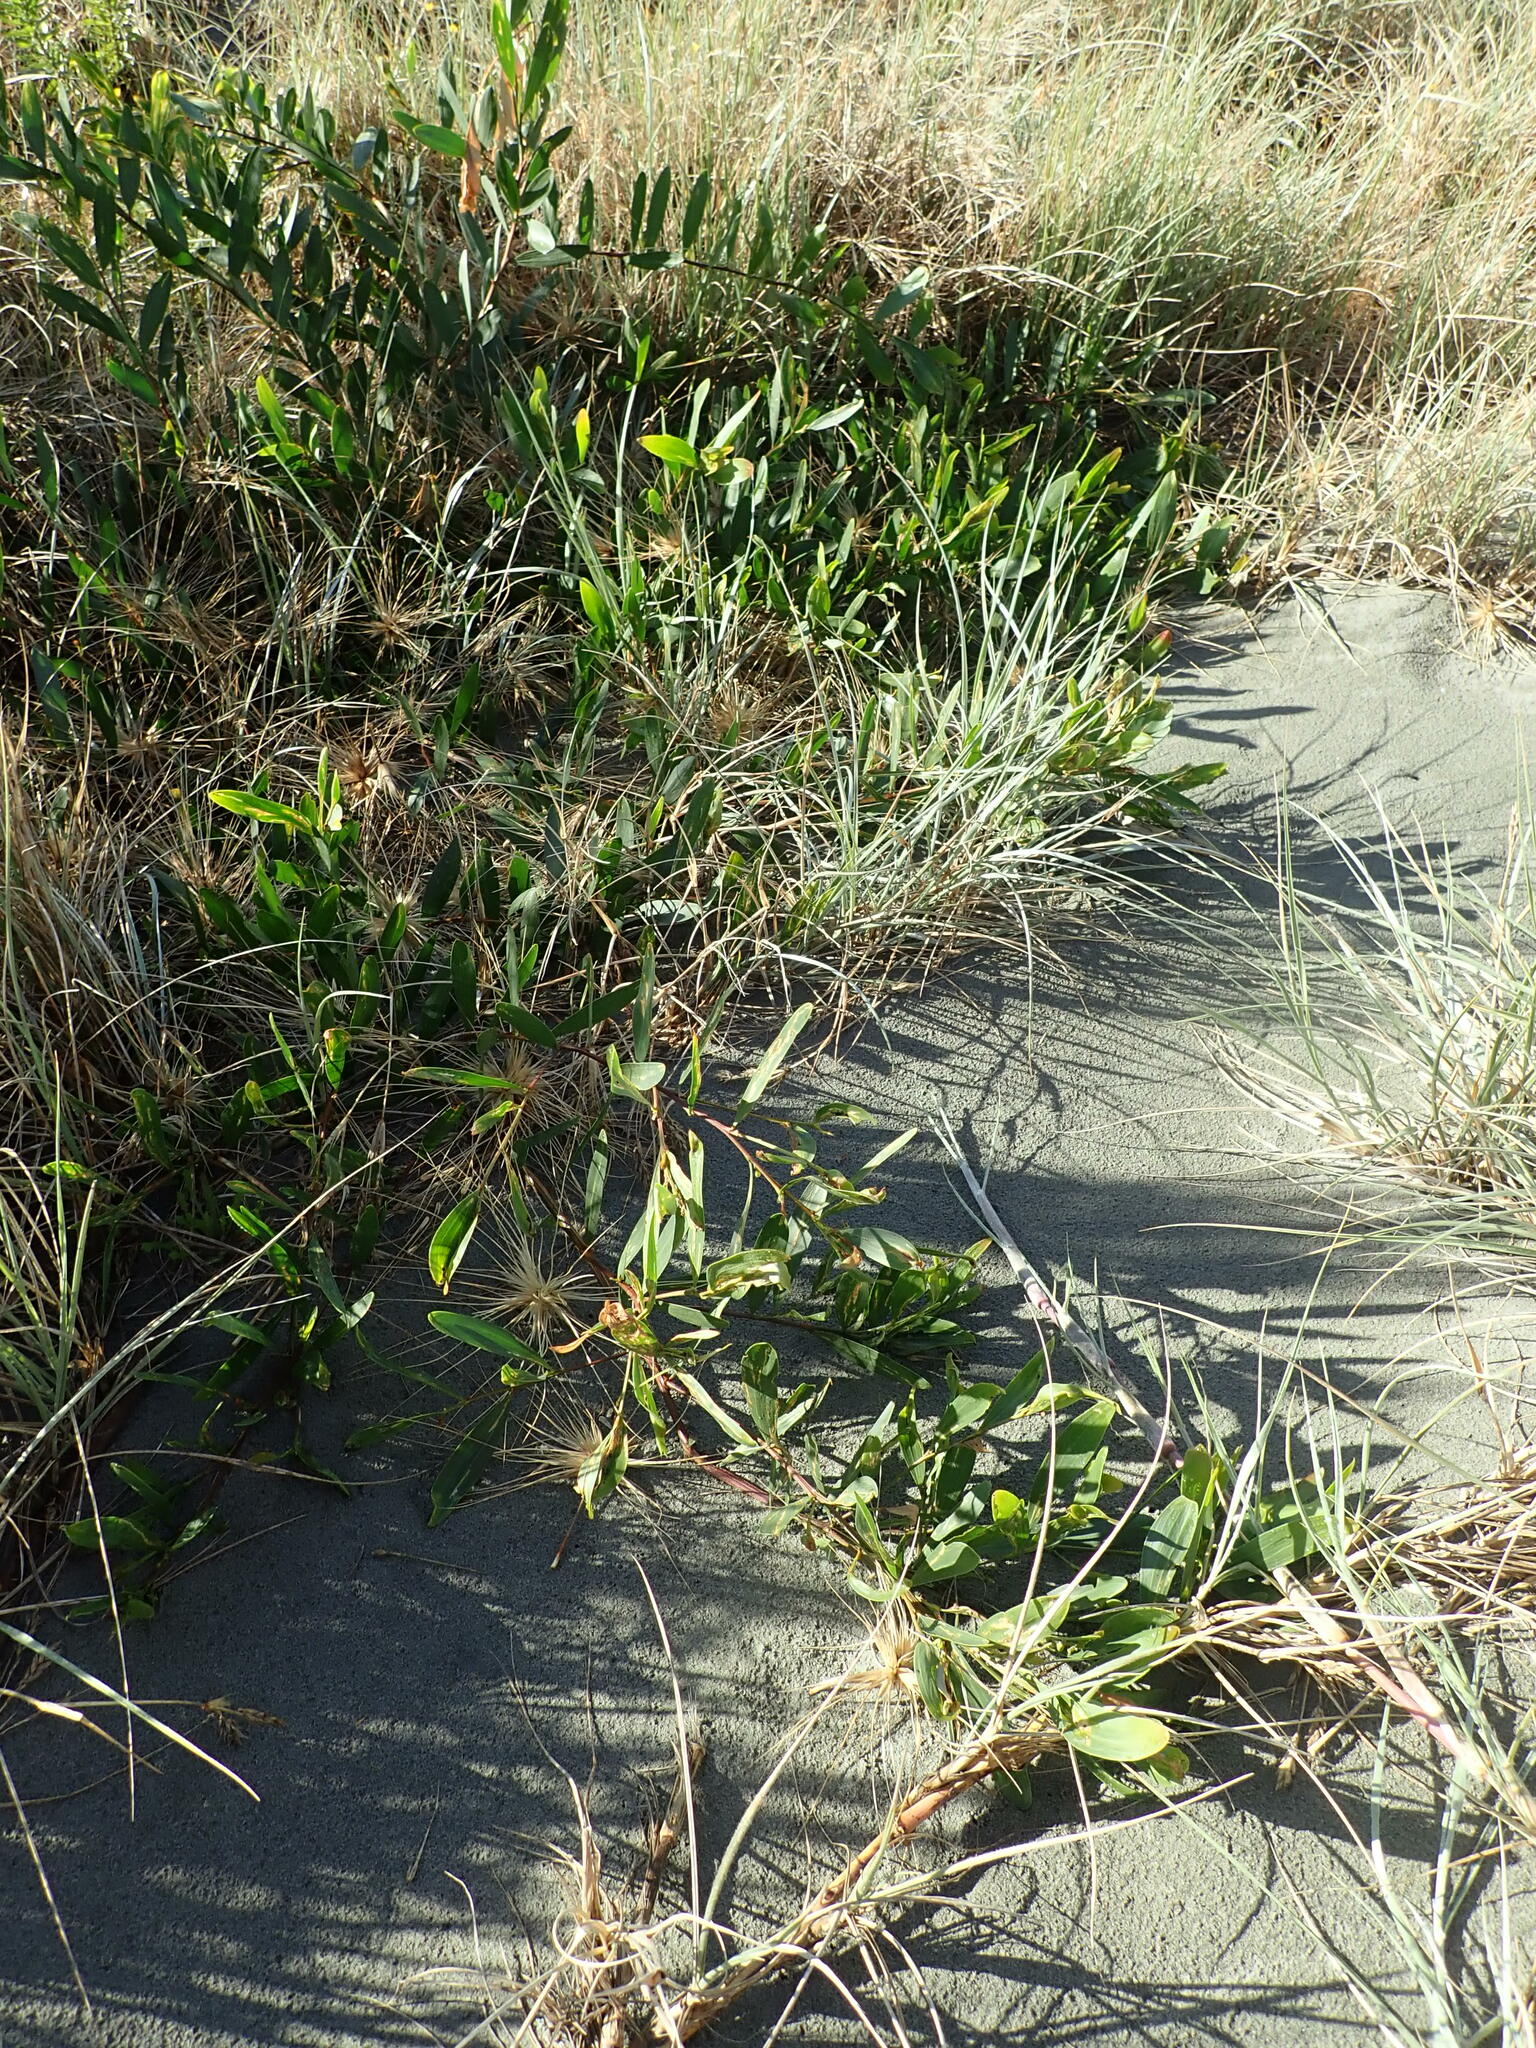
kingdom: Plantae
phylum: Tracheophyta
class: Magnoliopsida
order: Fabales
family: Fabaceae
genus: Acacia
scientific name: Acacia longifolia
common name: Sydney golden wattle
